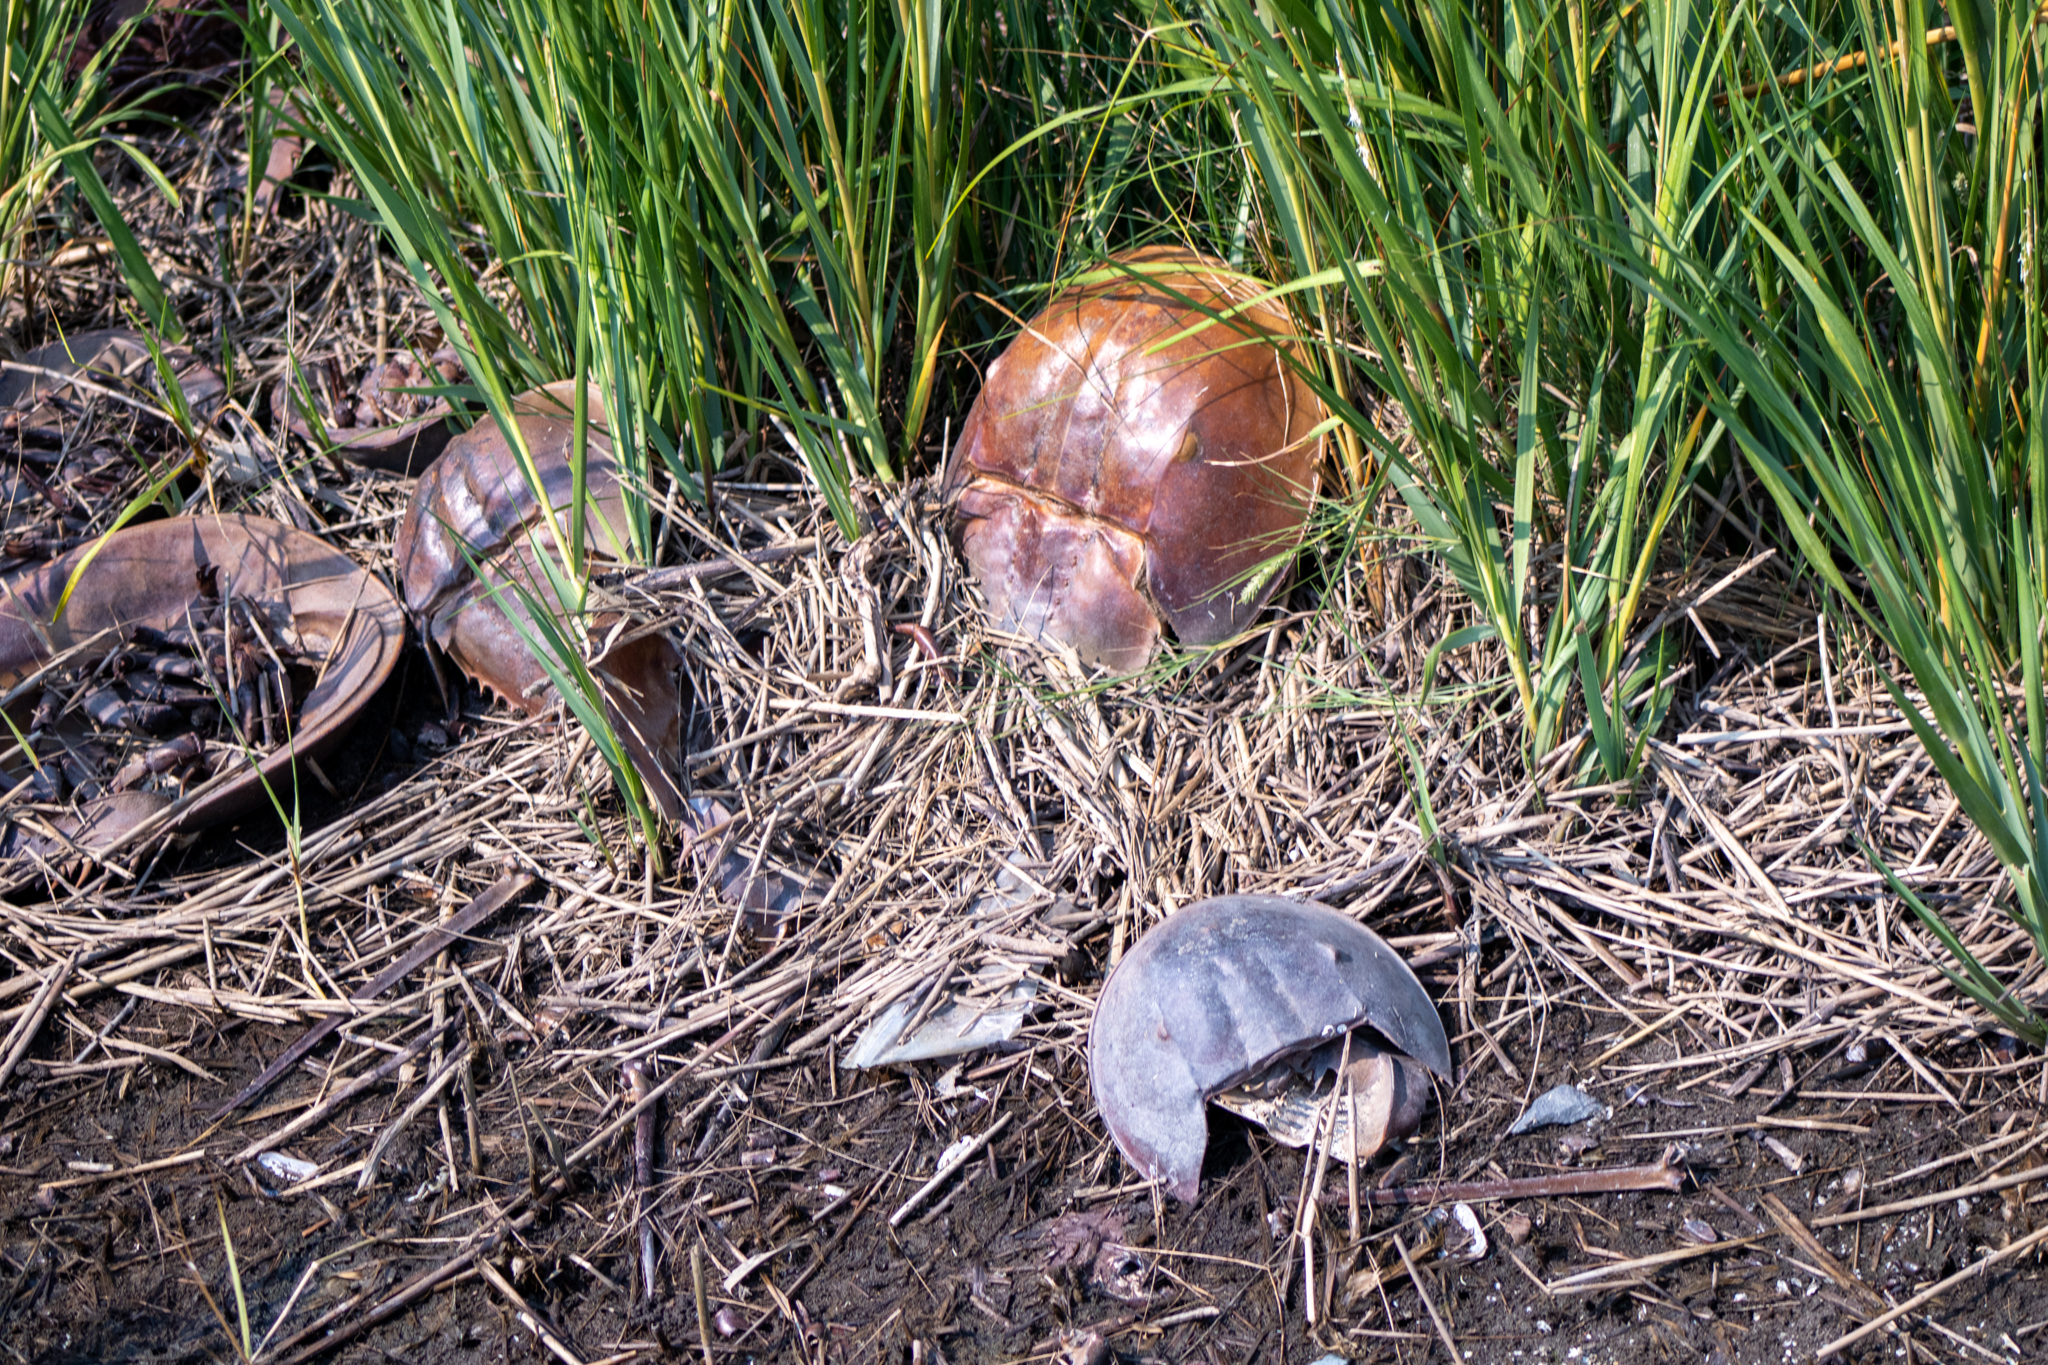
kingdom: Animalia
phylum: Arthropoda
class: Merostomata
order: Xiphosurida
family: Limulidae
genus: Limulus
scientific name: Limulus polyphemus
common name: Horseshoe crab
